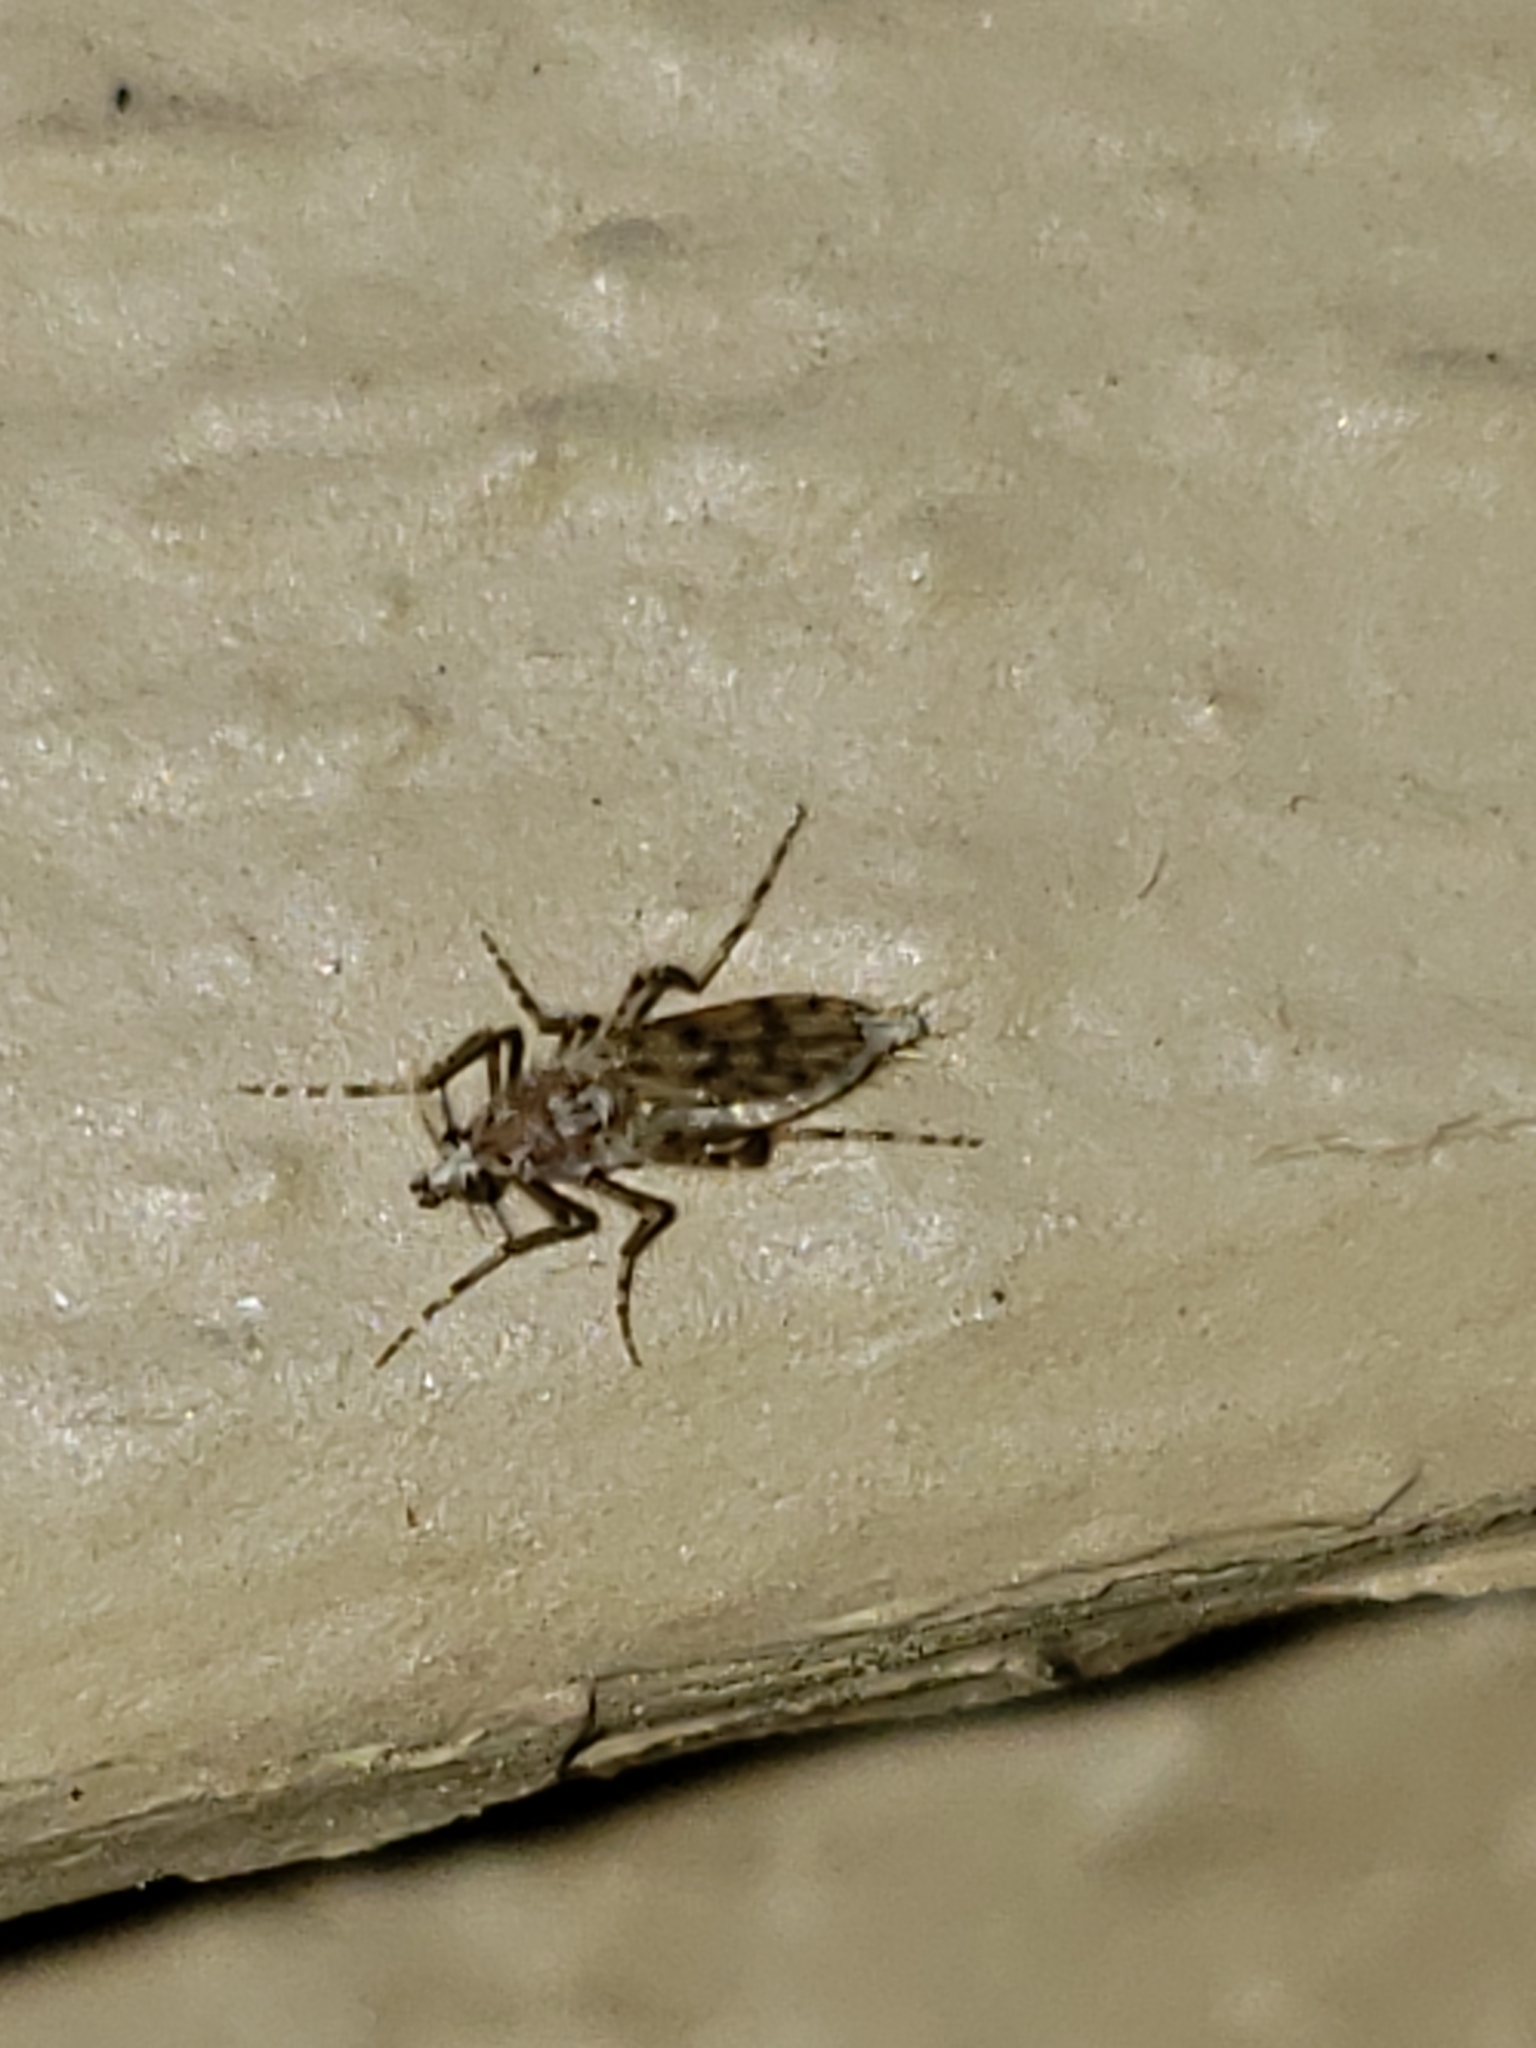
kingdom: Animalia
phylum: Arthropoda
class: Insecta
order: Diptera
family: Chaoboridae
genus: Chaoborus
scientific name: Chaoborus punctipennis
